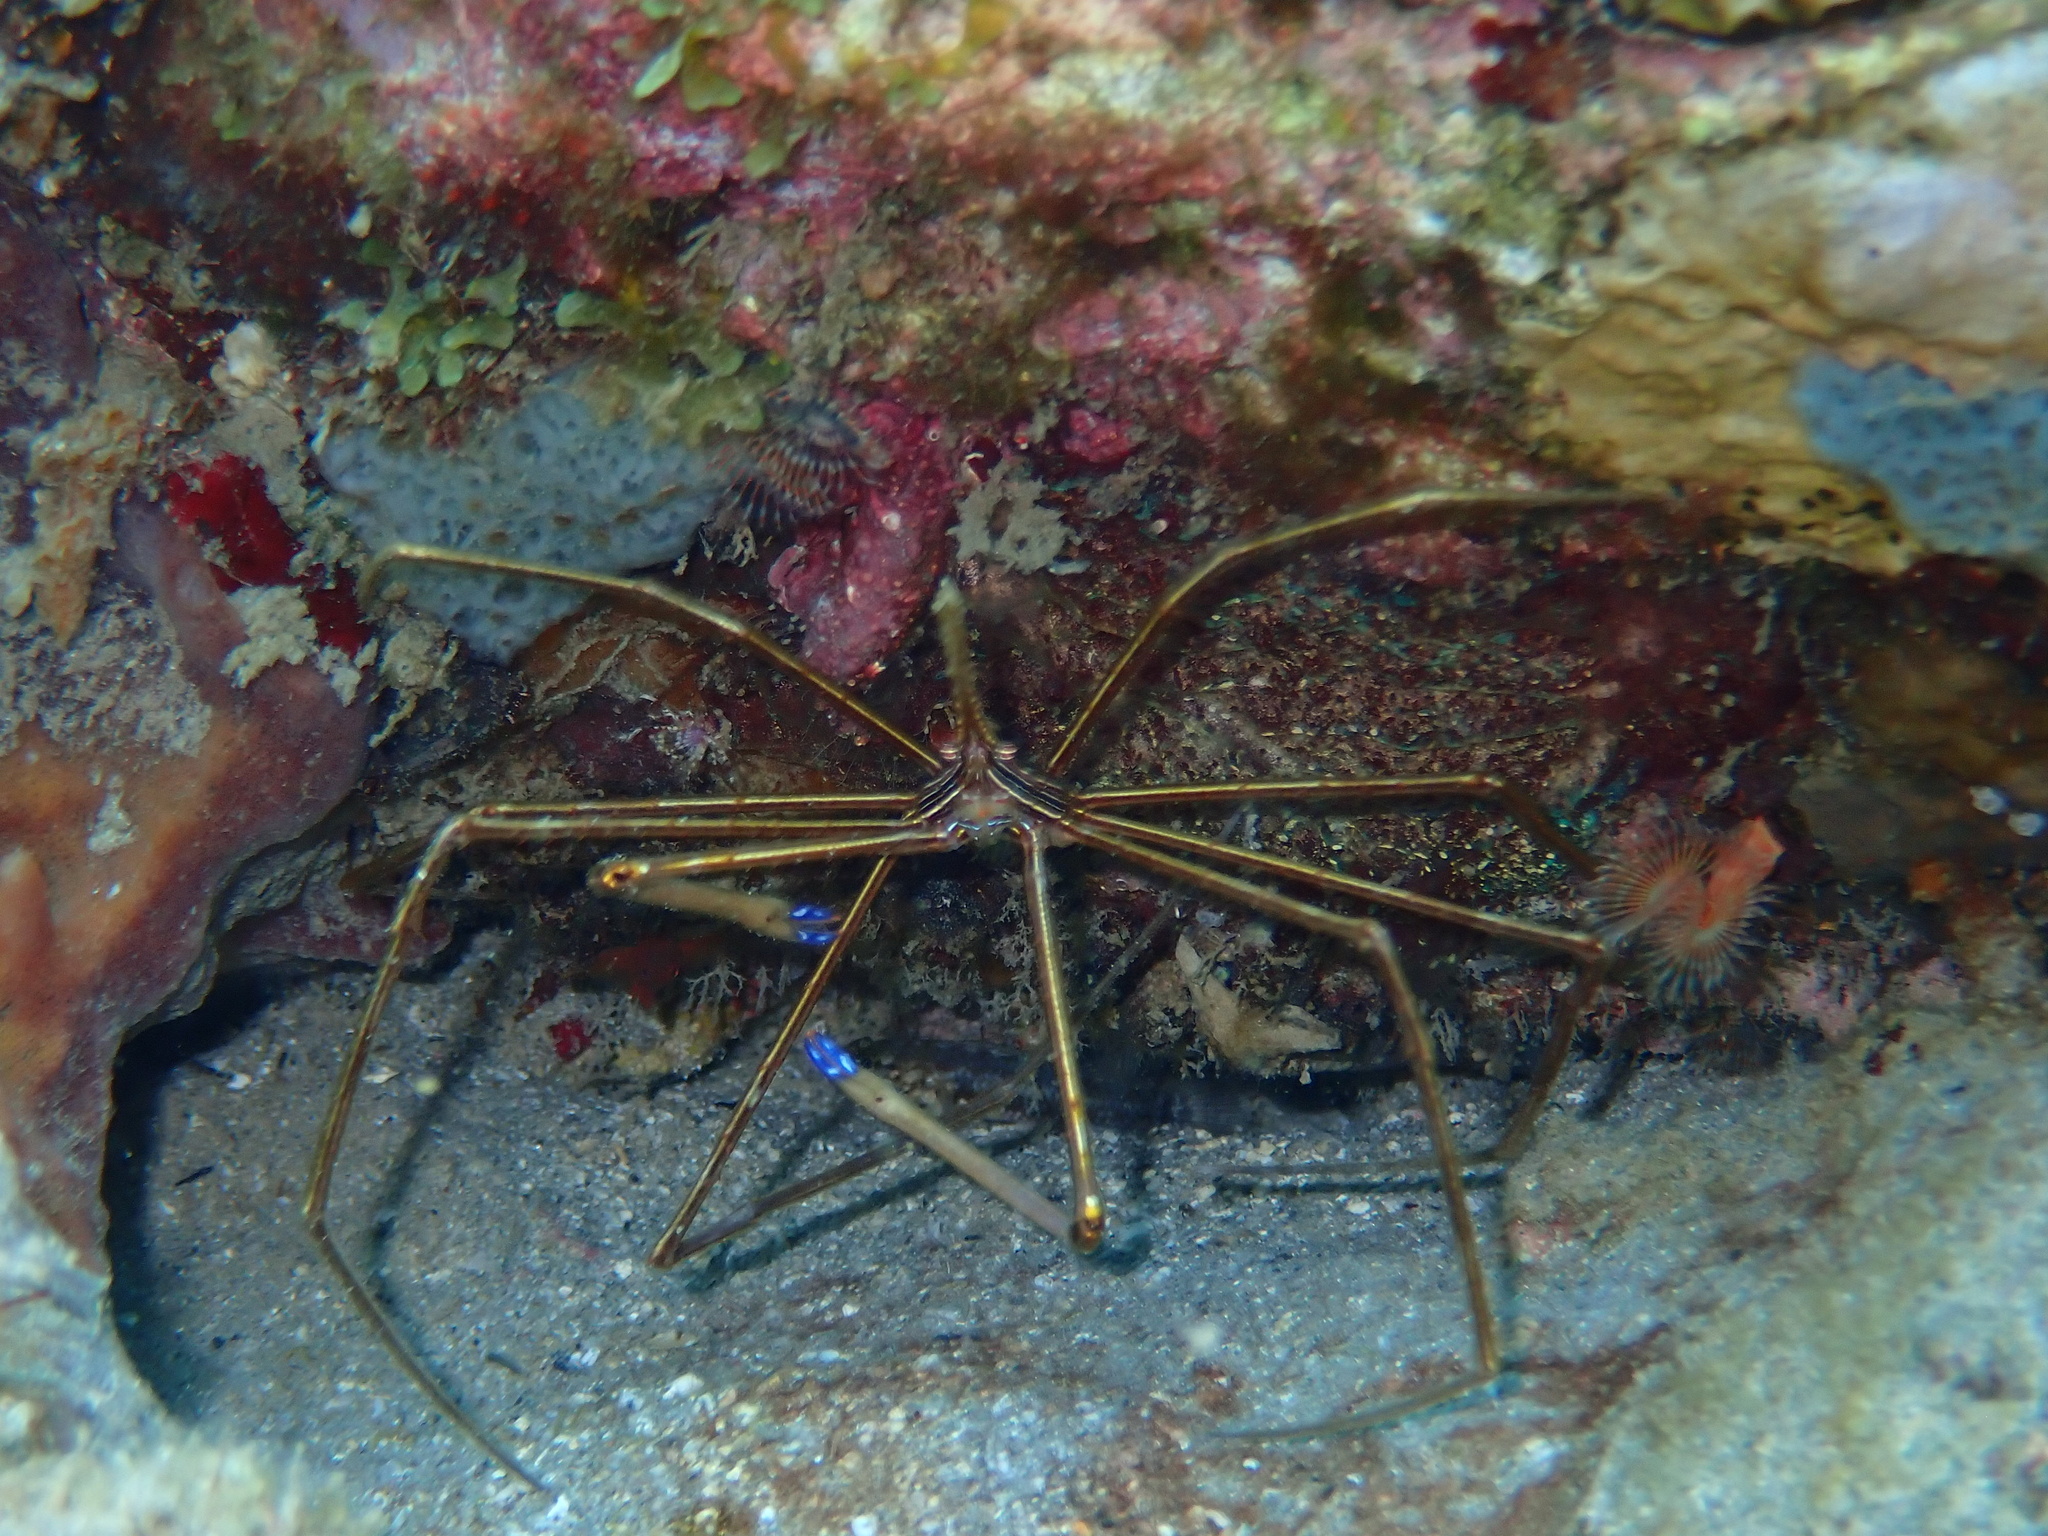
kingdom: Animalia
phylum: Arthropoda
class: Malacostraca
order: Decapoda
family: Inachoididae
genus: Stenorhynchus
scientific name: Stenorhynchus seticornis
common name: Arrow crab
